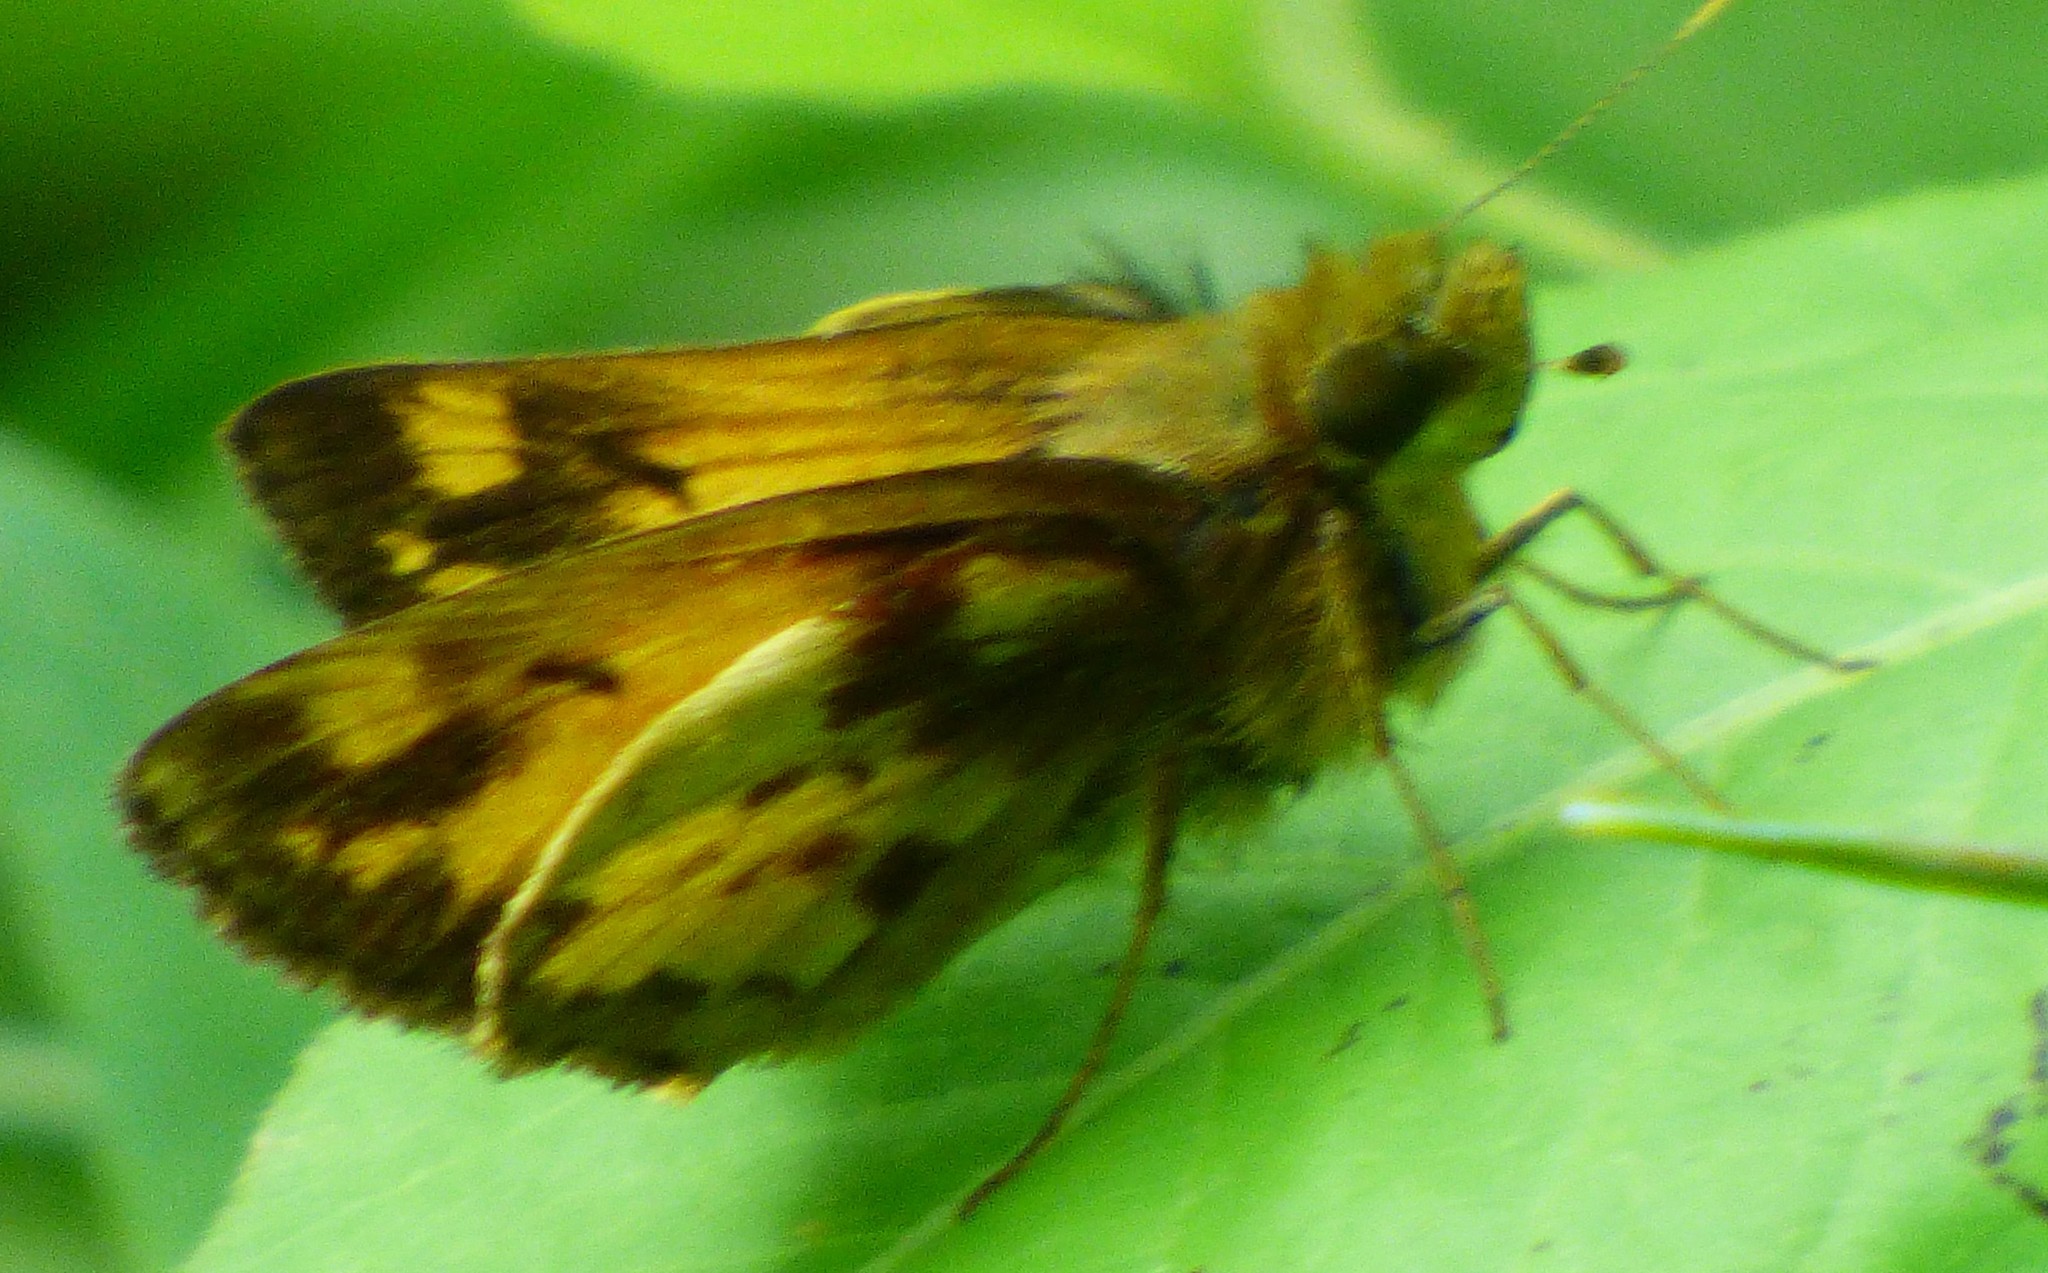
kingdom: Animalia
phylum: Arthropoda
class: Insecta
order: Lepidoptera
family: Hesperiidae
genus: Lon
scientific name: Lon zabulon
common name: Zabulon skipper
